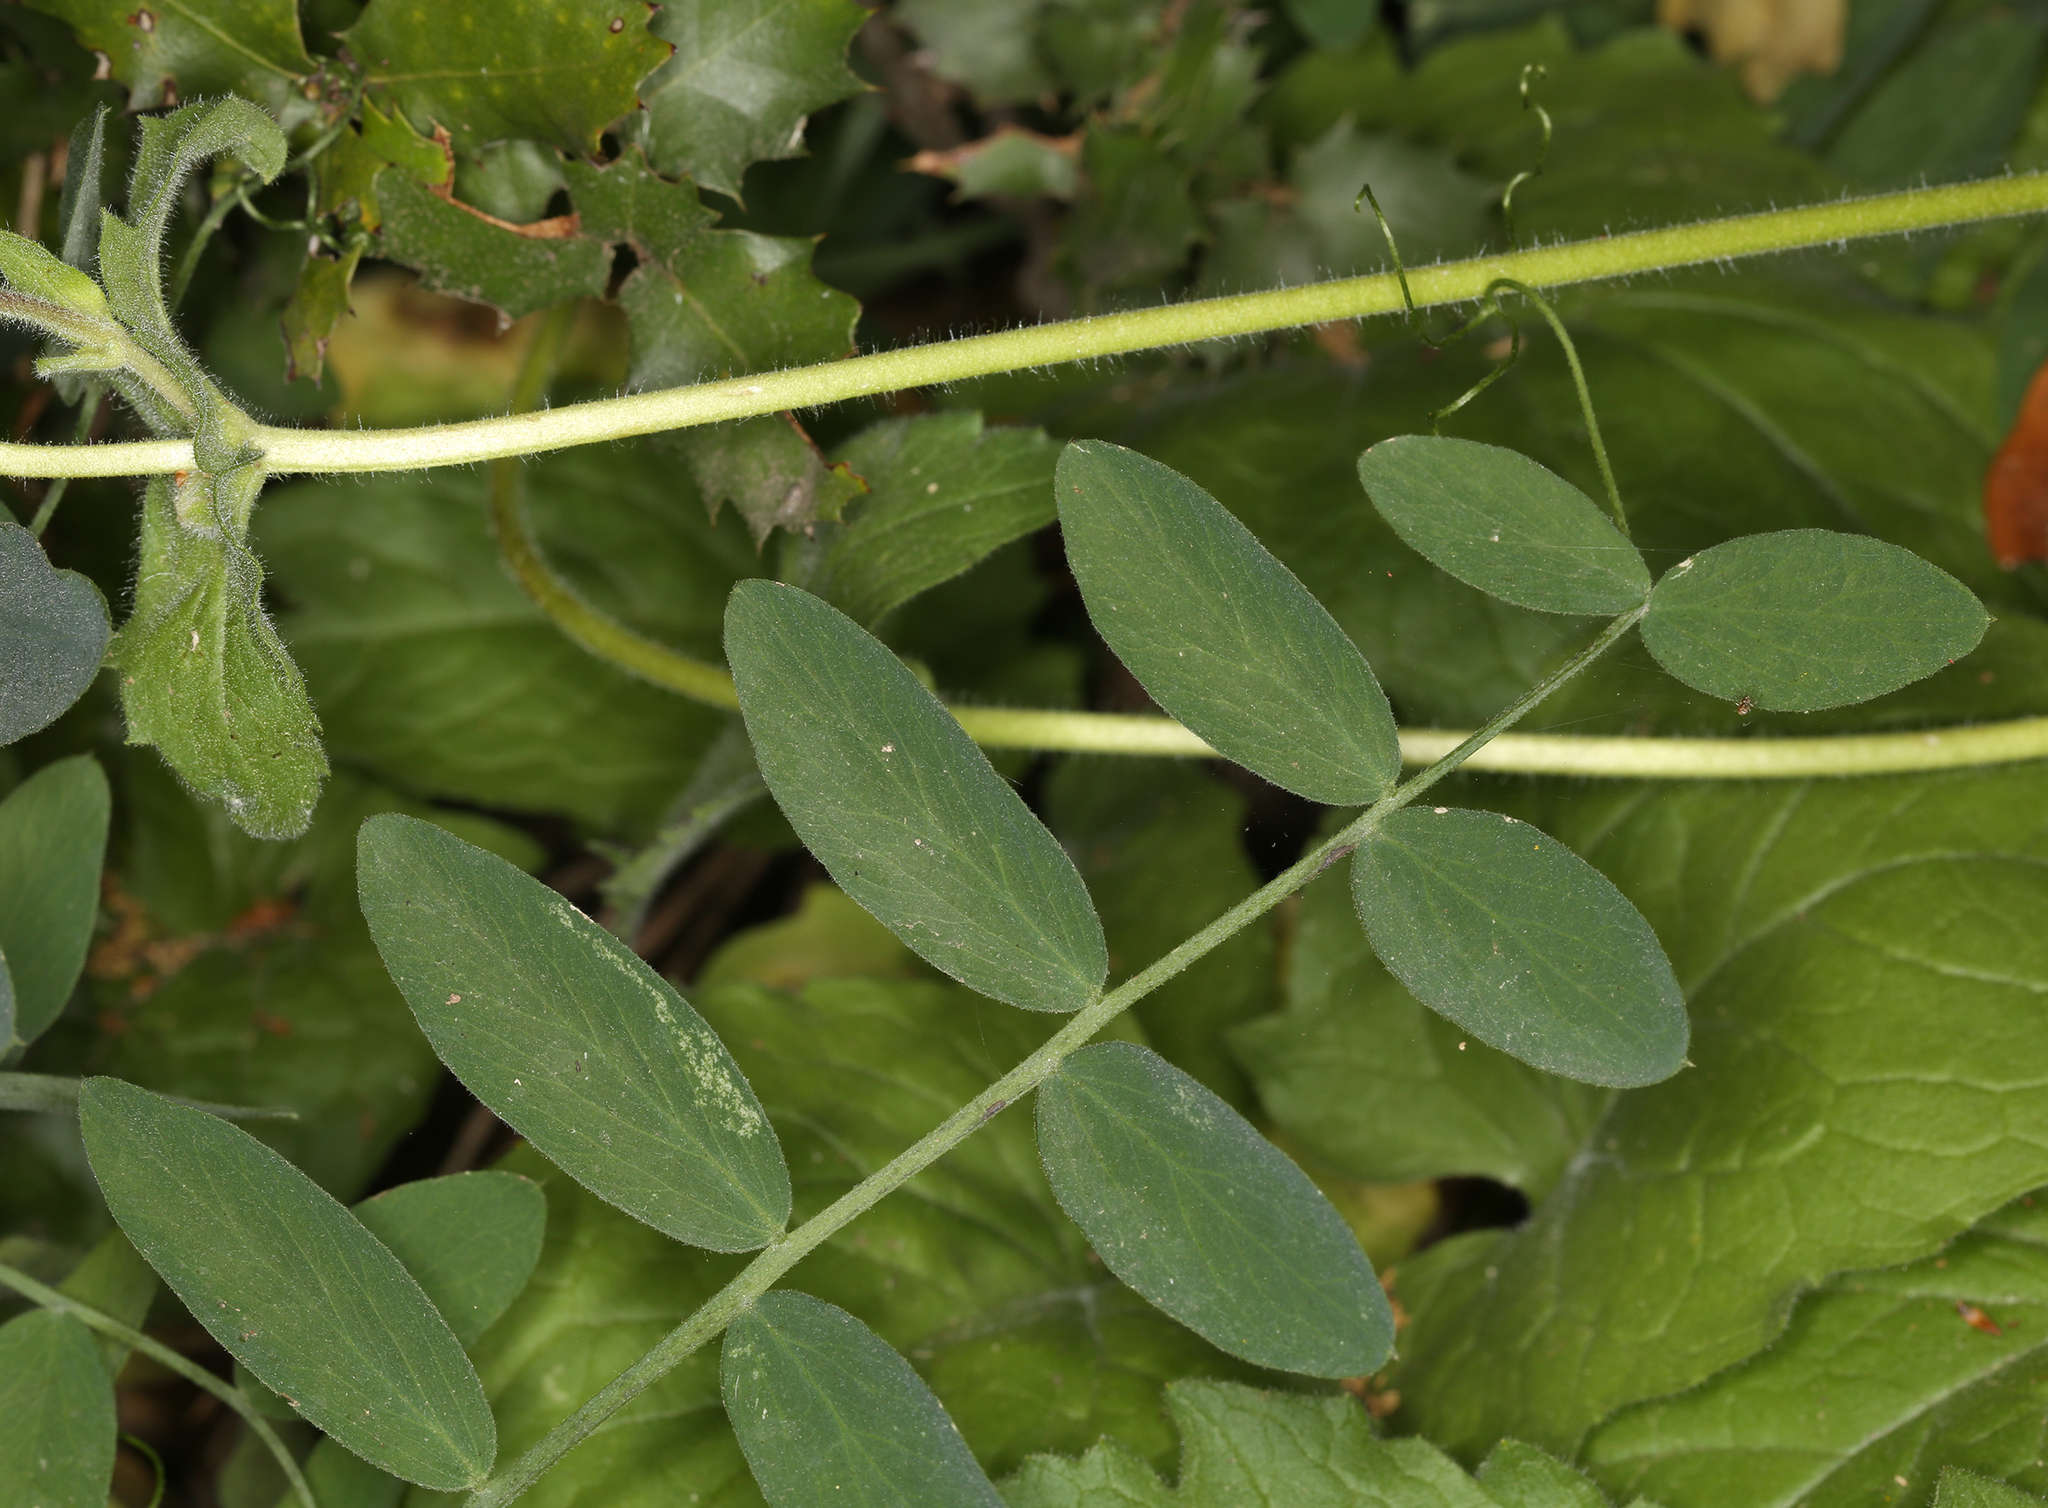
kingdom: Plantae
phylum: Tracheophyta
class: Magnoliopsida
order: Fabales
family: Fabaceae
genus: Lathyrus
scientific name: Lathyrus vestitus
